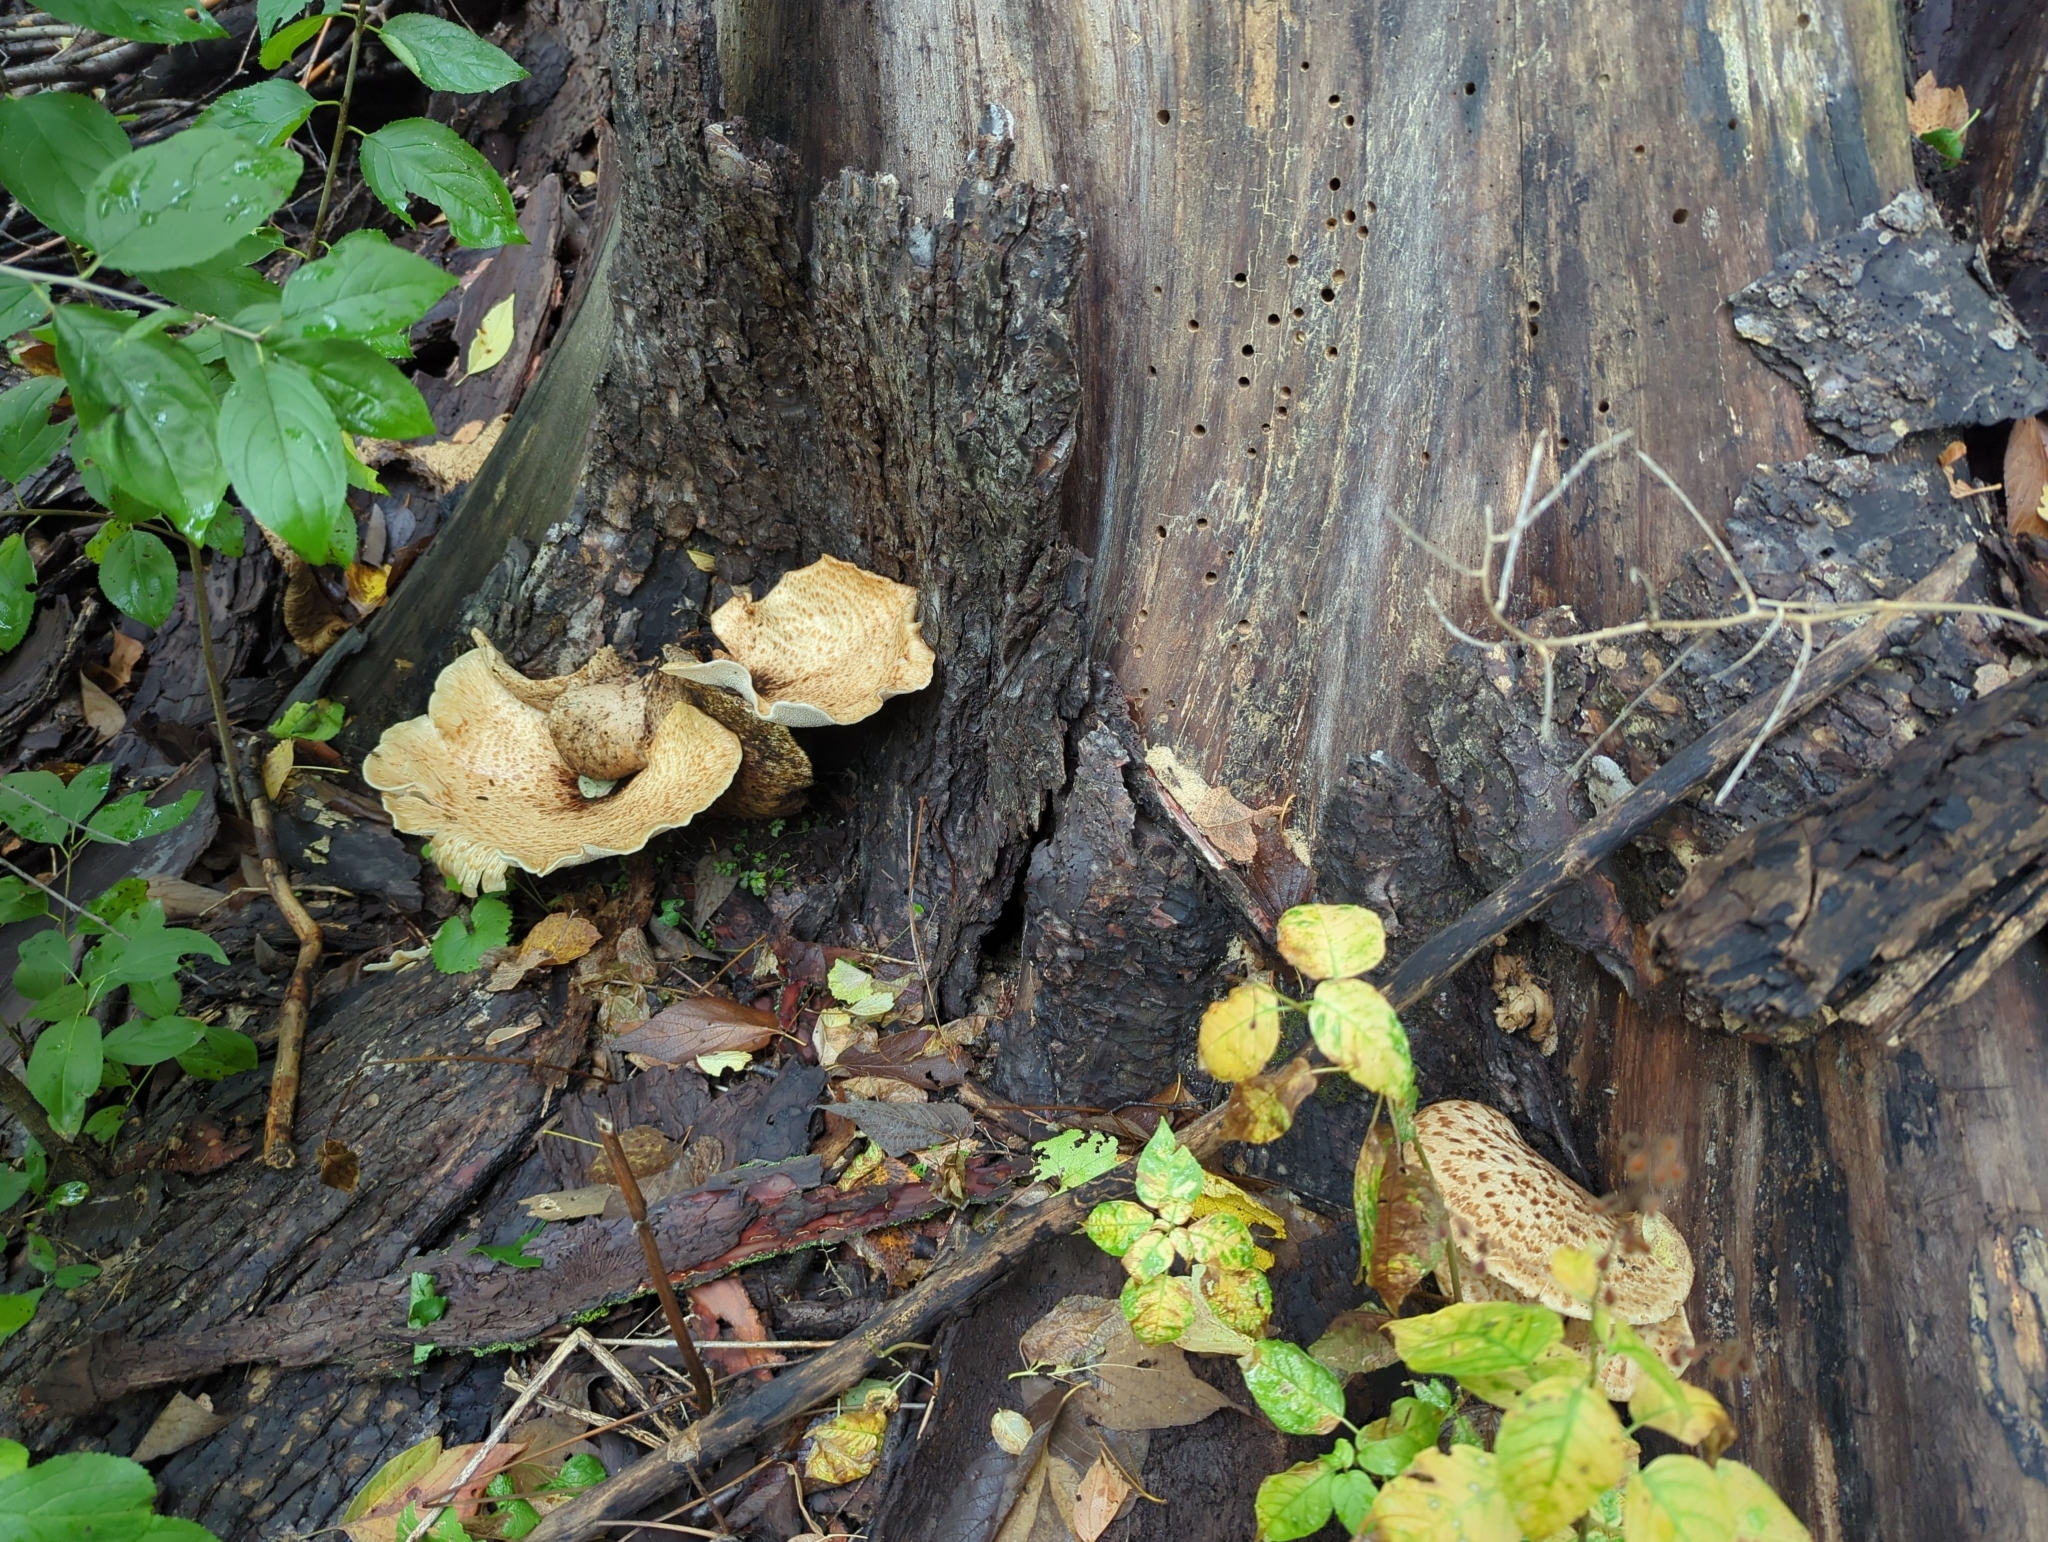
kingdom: Fungi
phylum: Basidiomycota
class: Agaricomycetes
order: Polyporales
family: Polyporaceae
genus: Cerioporus
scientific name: Cerioporus squamosus
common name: Dryad's saddle
